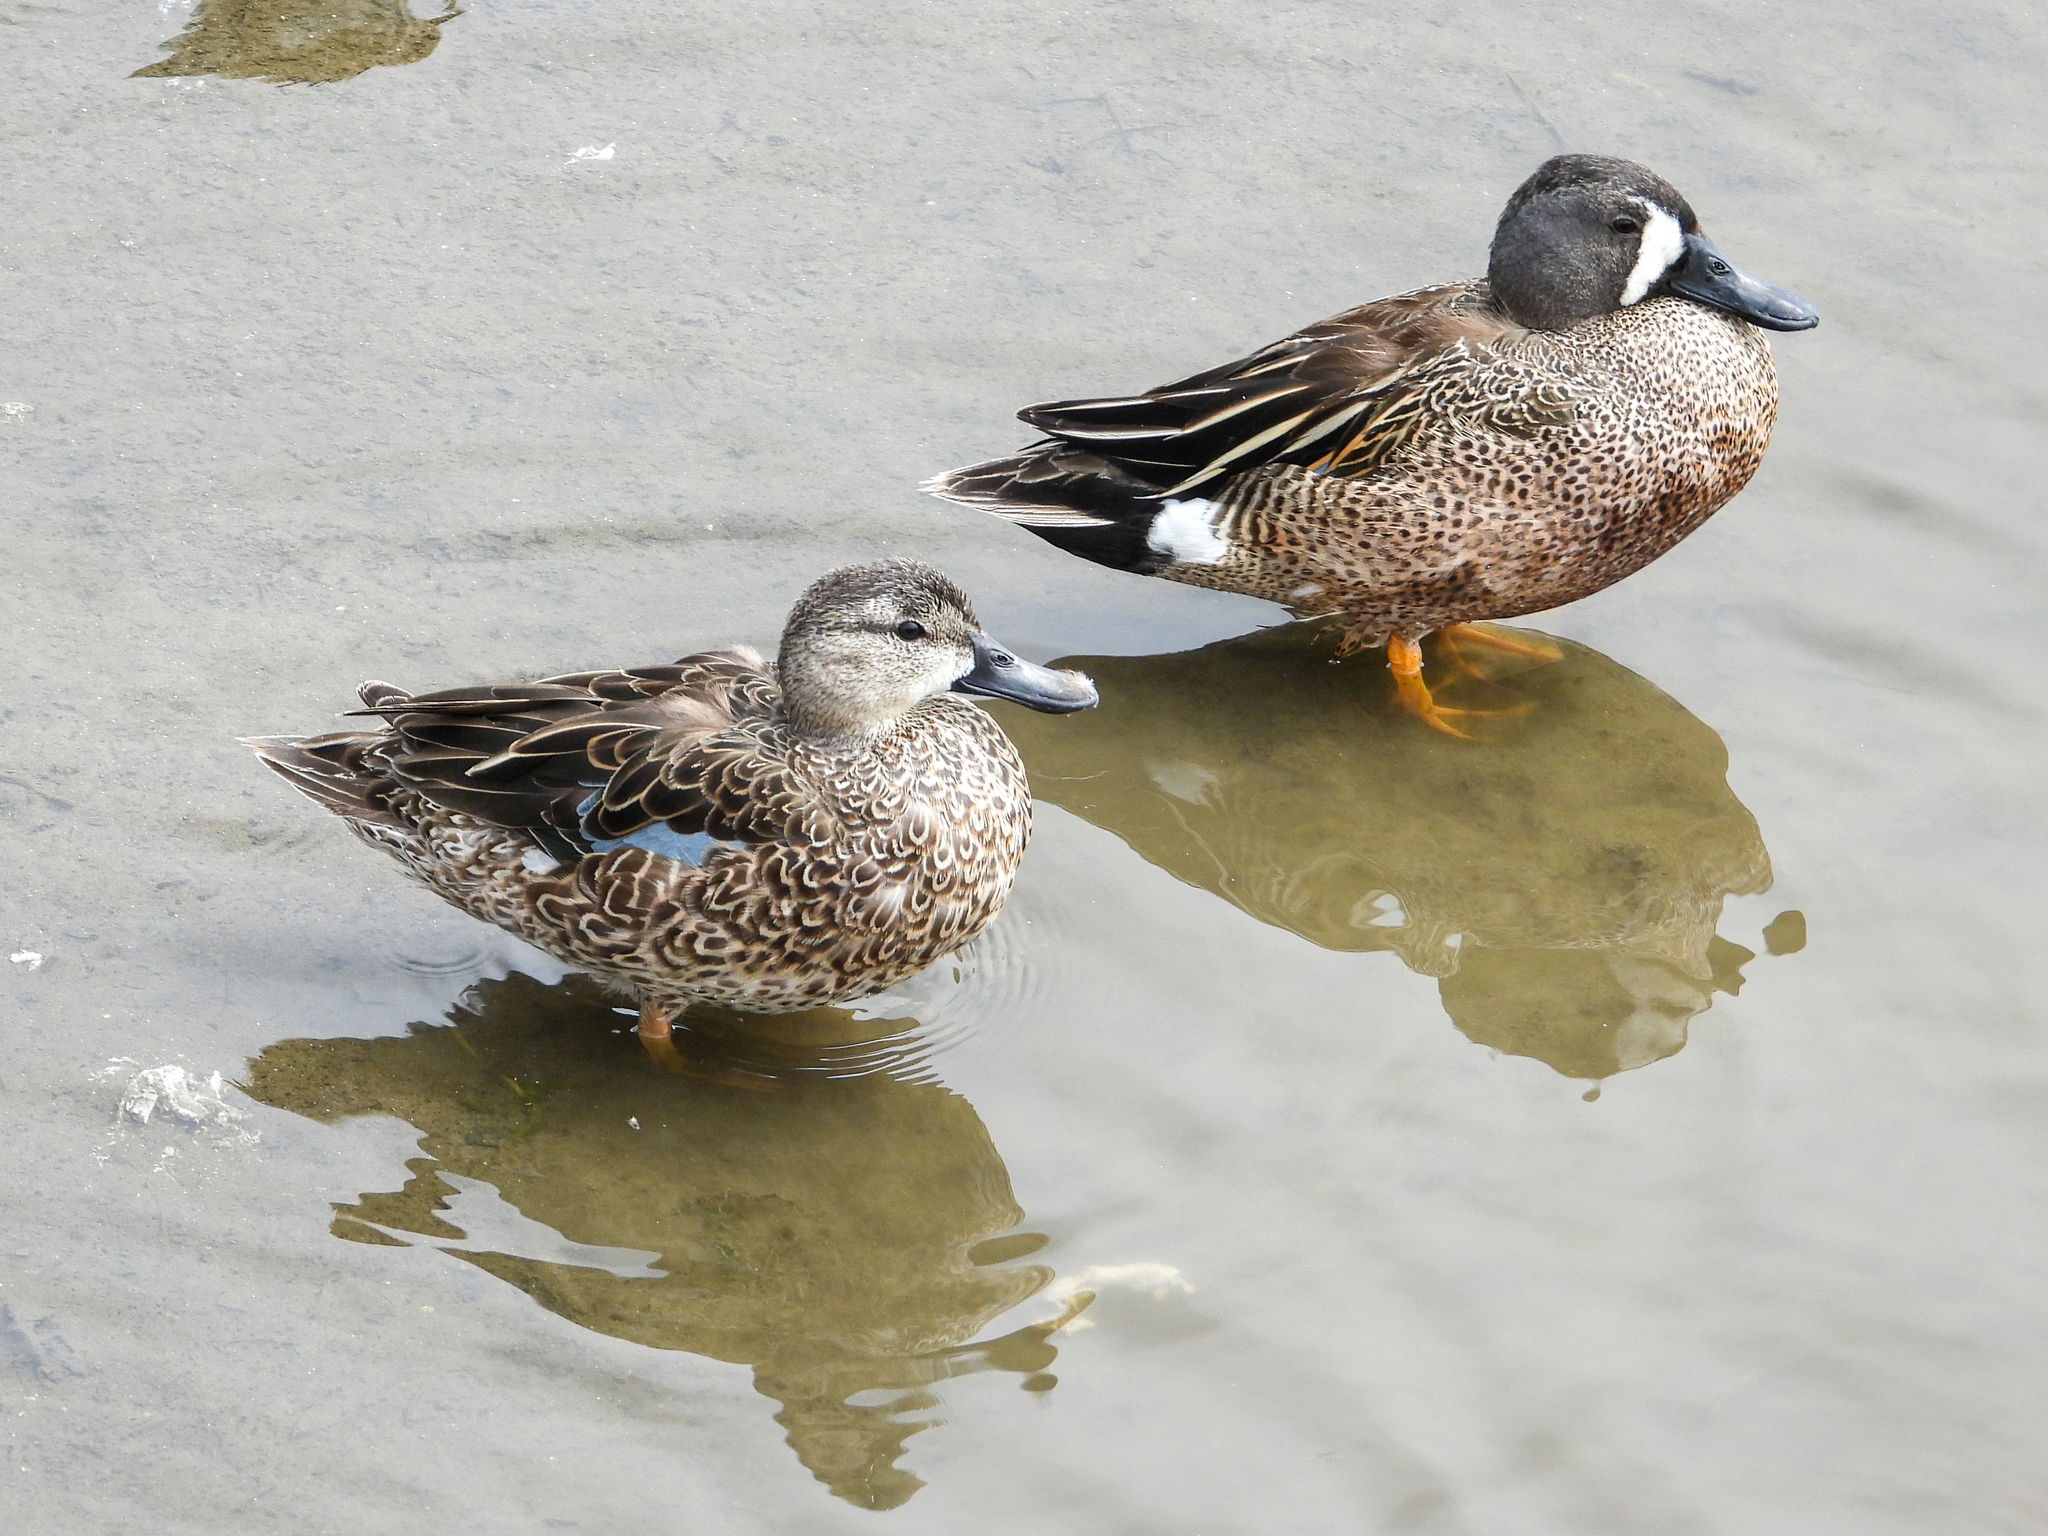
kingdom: Animalia
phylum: Chordata
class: Aves
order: Anseriformes
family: Anatidae
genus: Spatula
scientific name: Spatula discors
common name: Blue-winged teal
